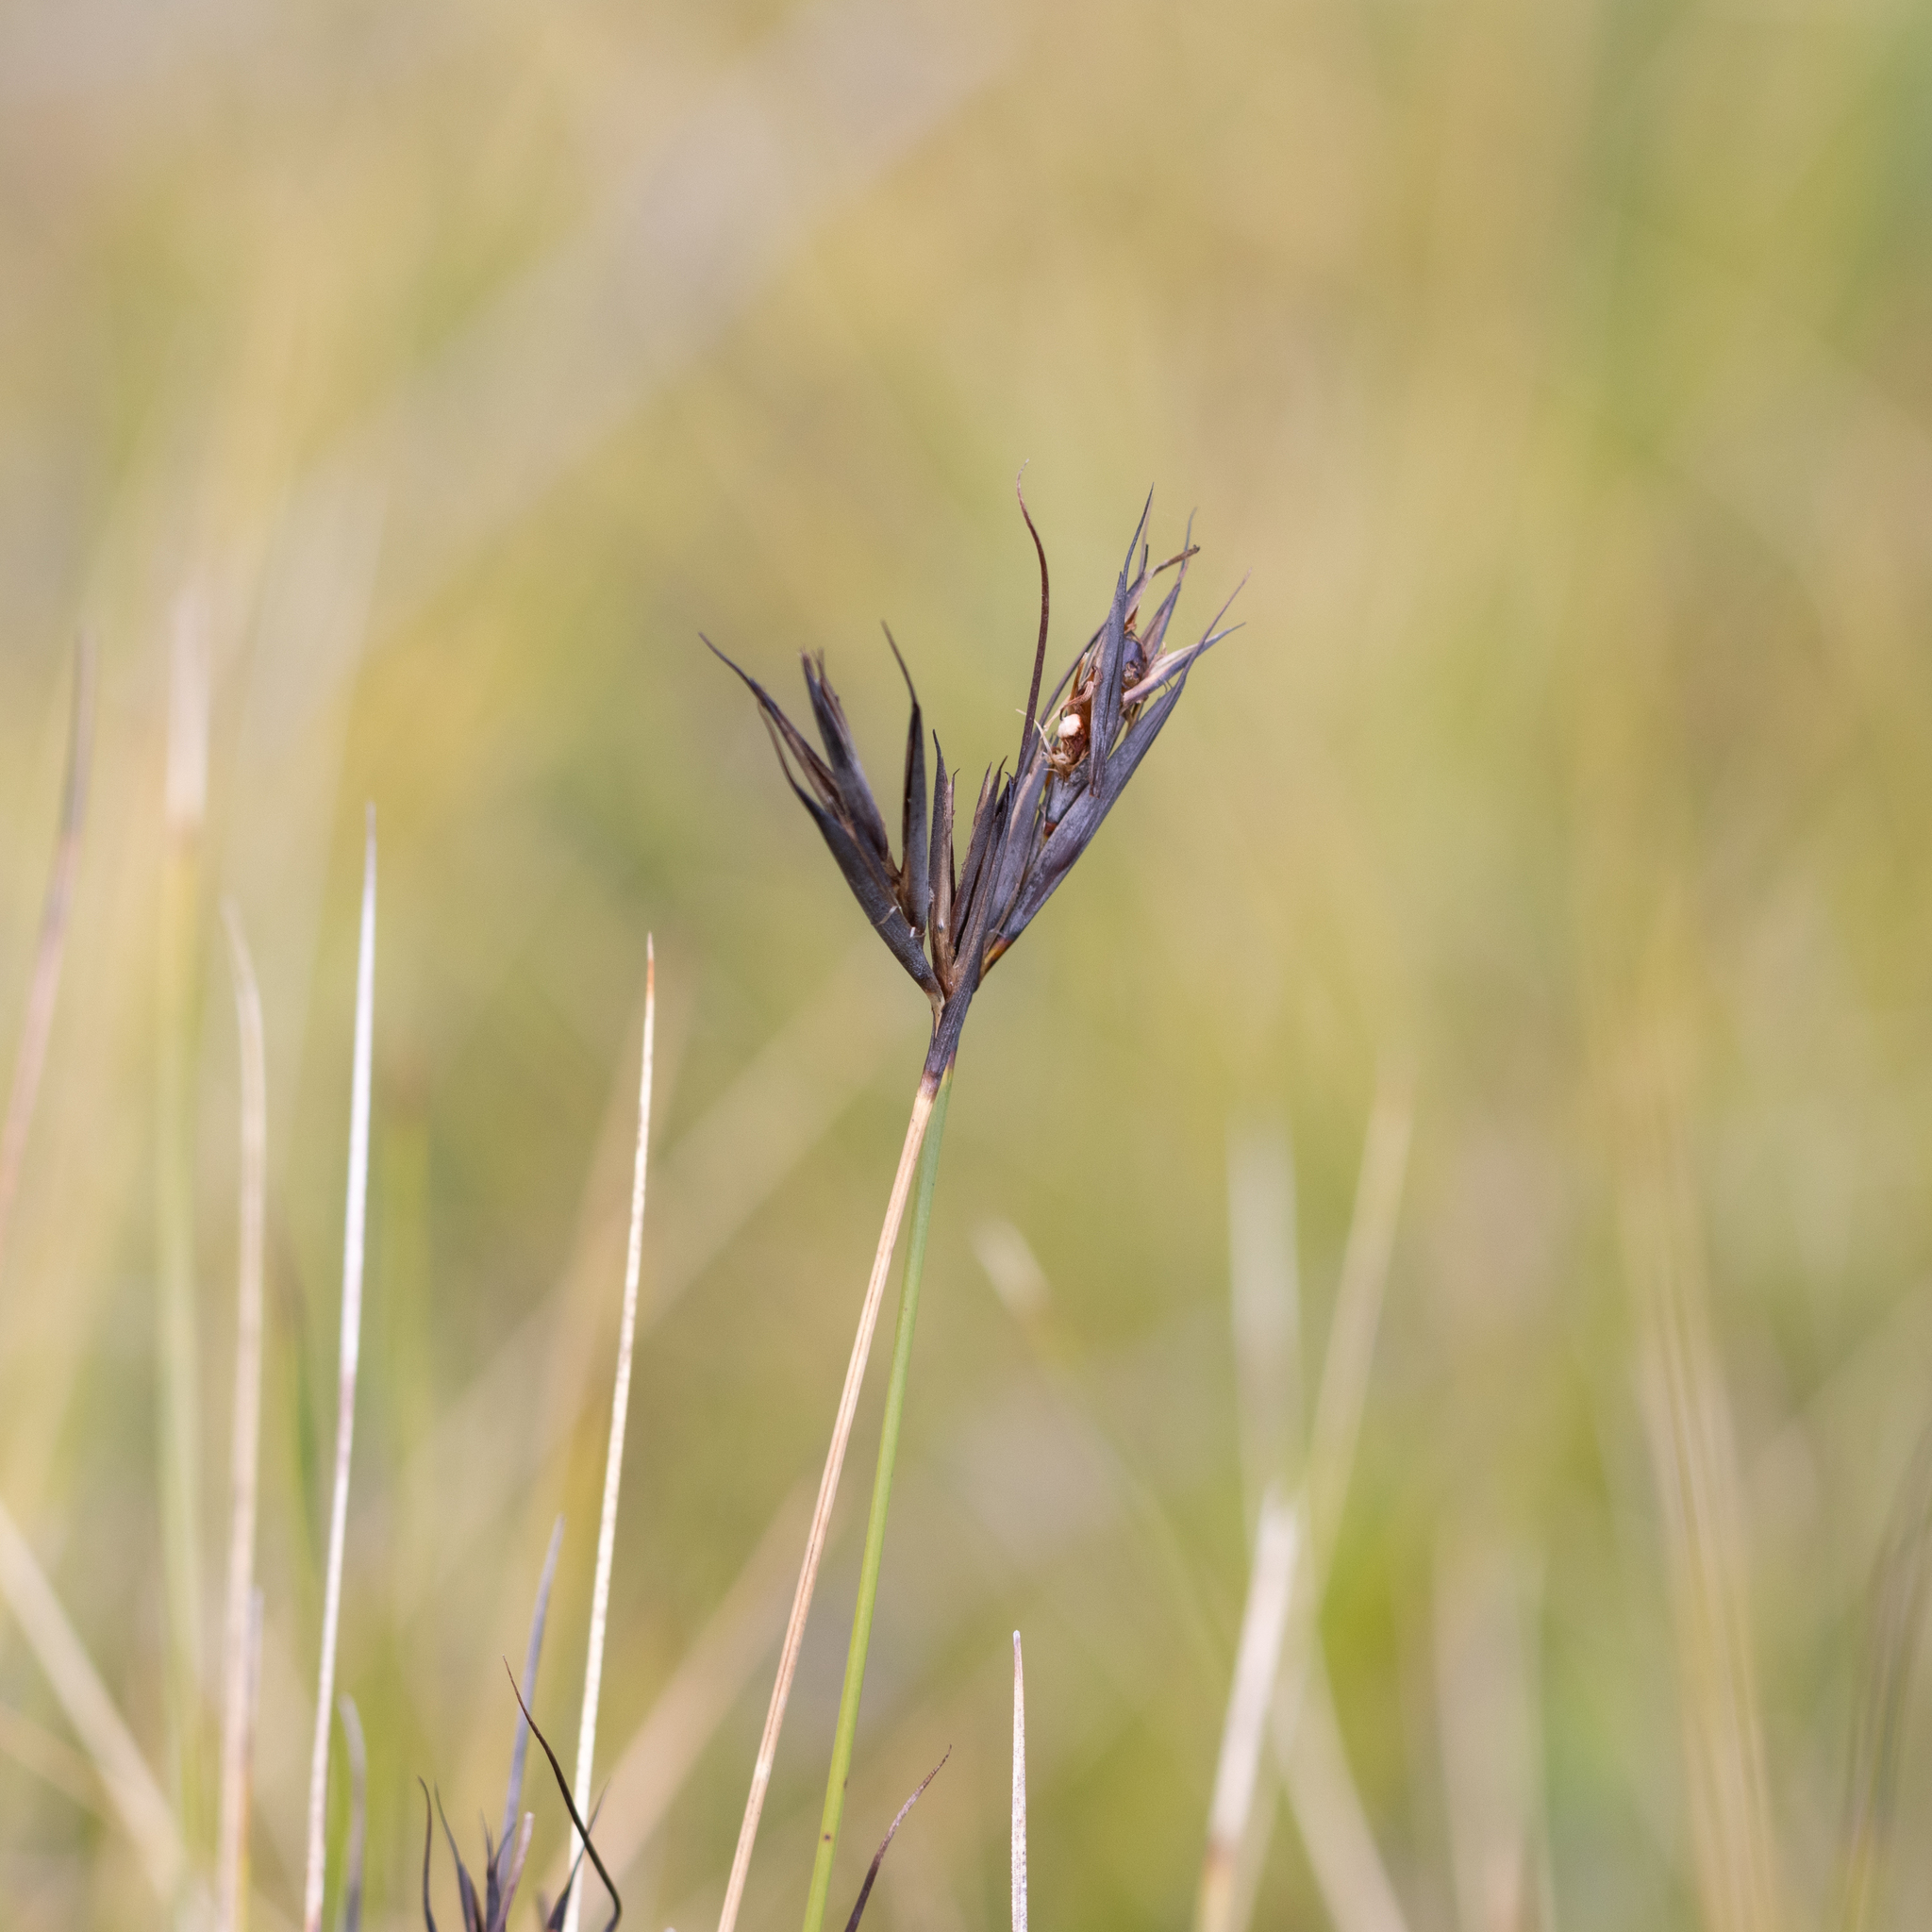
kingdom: Plantae
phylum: Tracheophyta
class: Liliopsida
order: Poales
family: Cyperaceae
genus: Lepidosperma
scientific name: Lepidosperma carphoides
